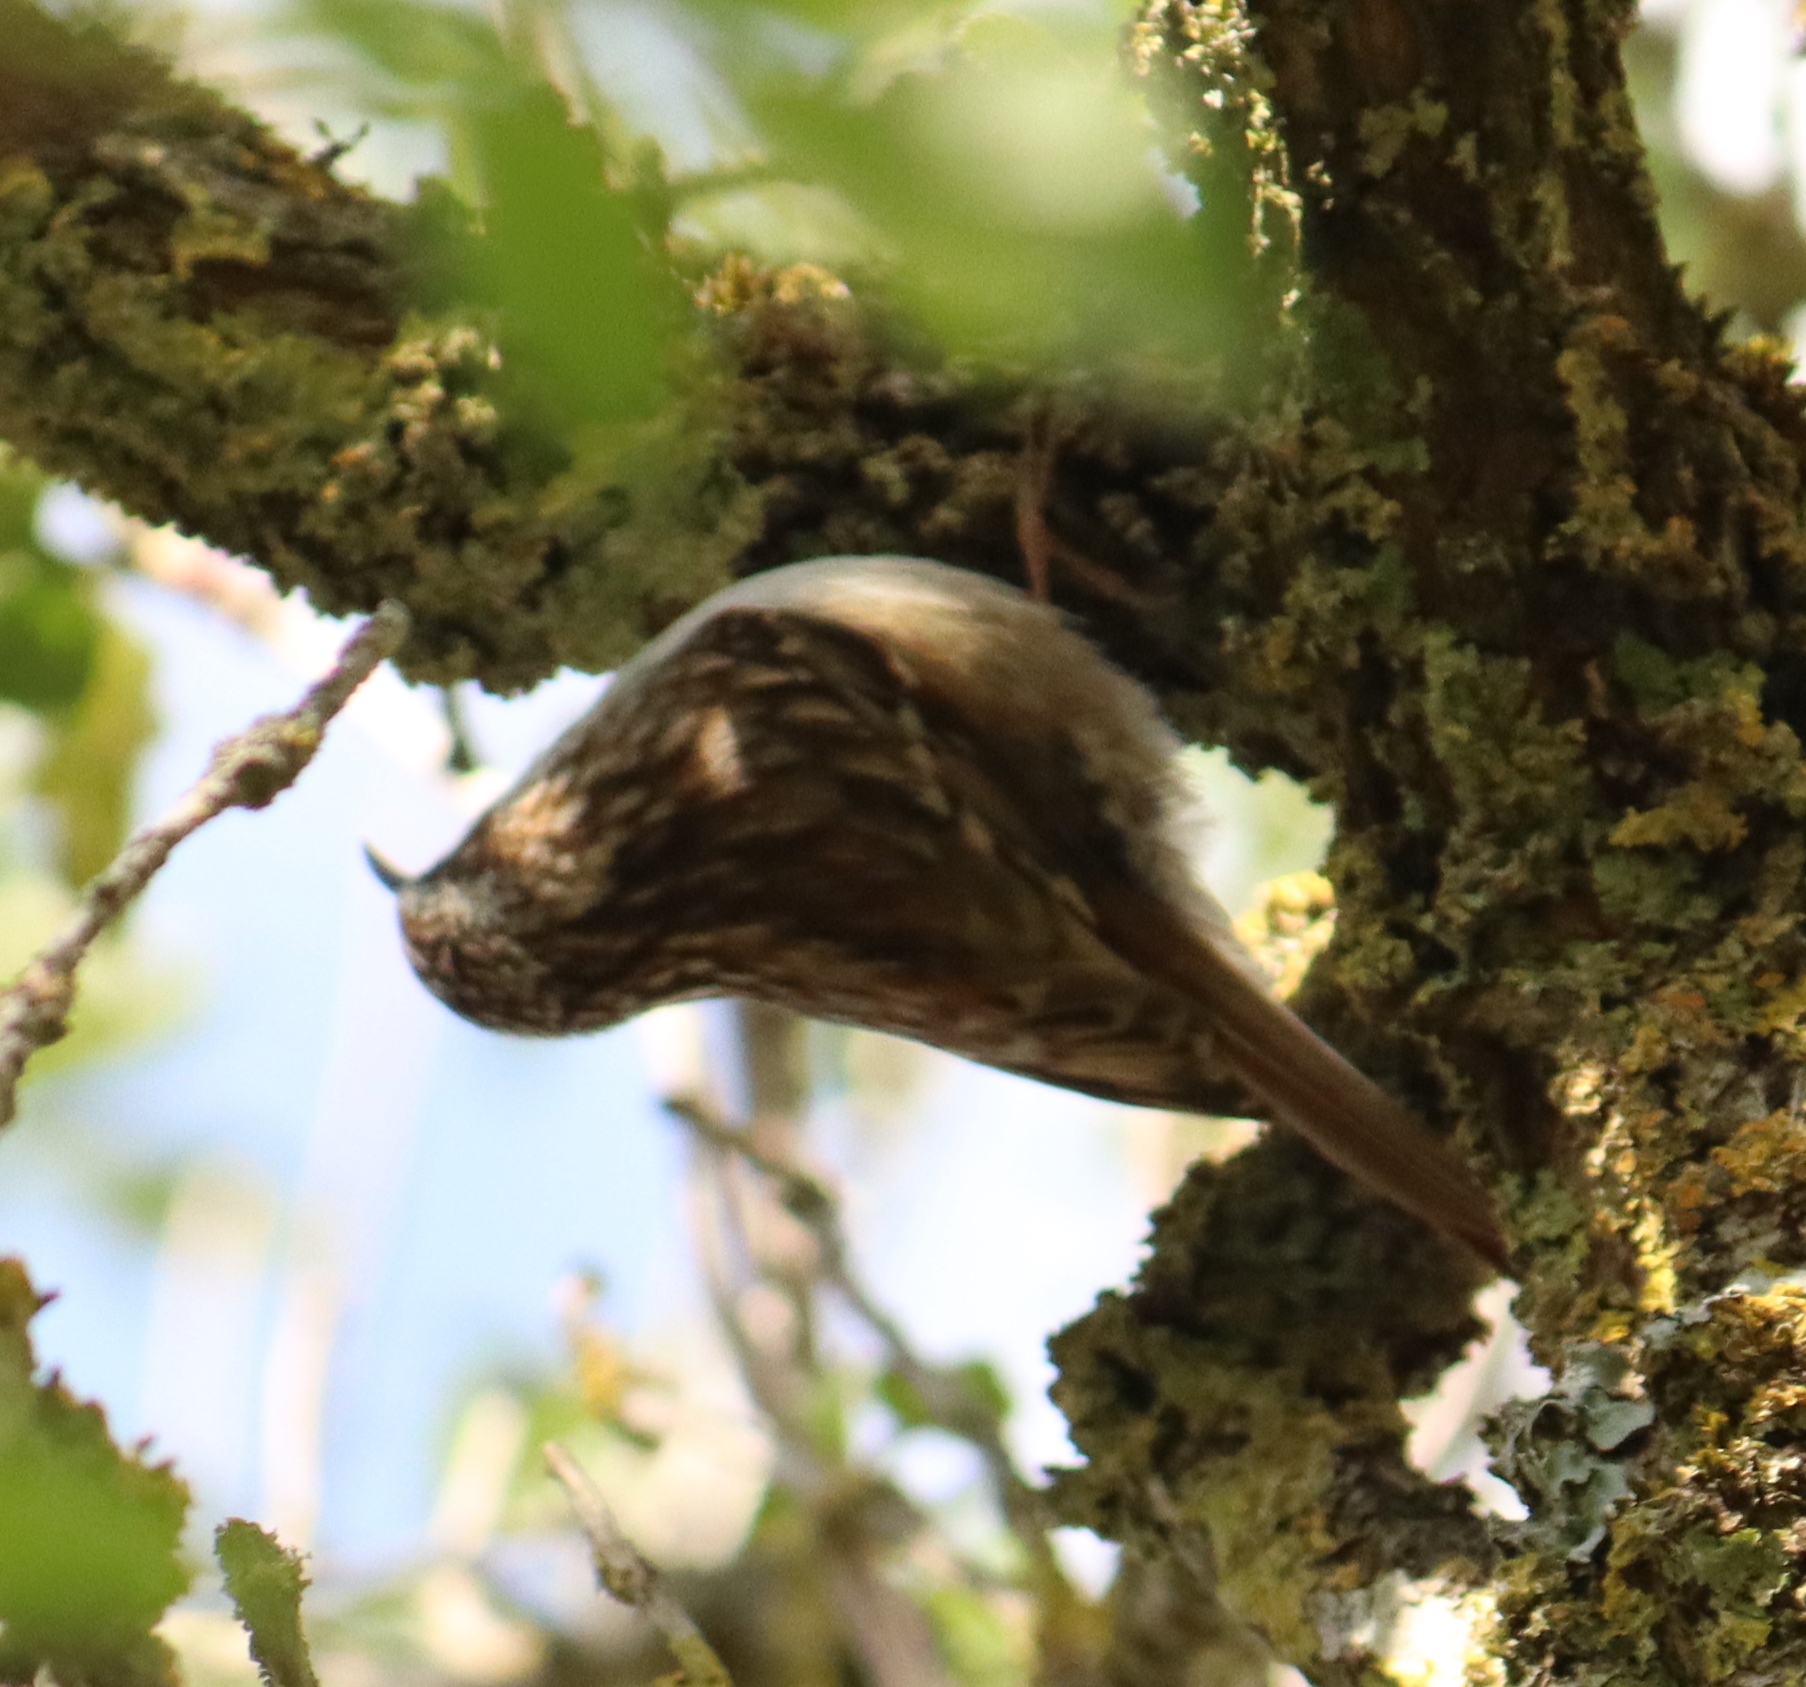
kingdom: Animalia
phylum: Chordata
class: Aves
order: Passeriformes
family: Certhiidae
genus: Certhia
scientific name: Certhia brachydactyla
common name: Short-toed treecreeper
